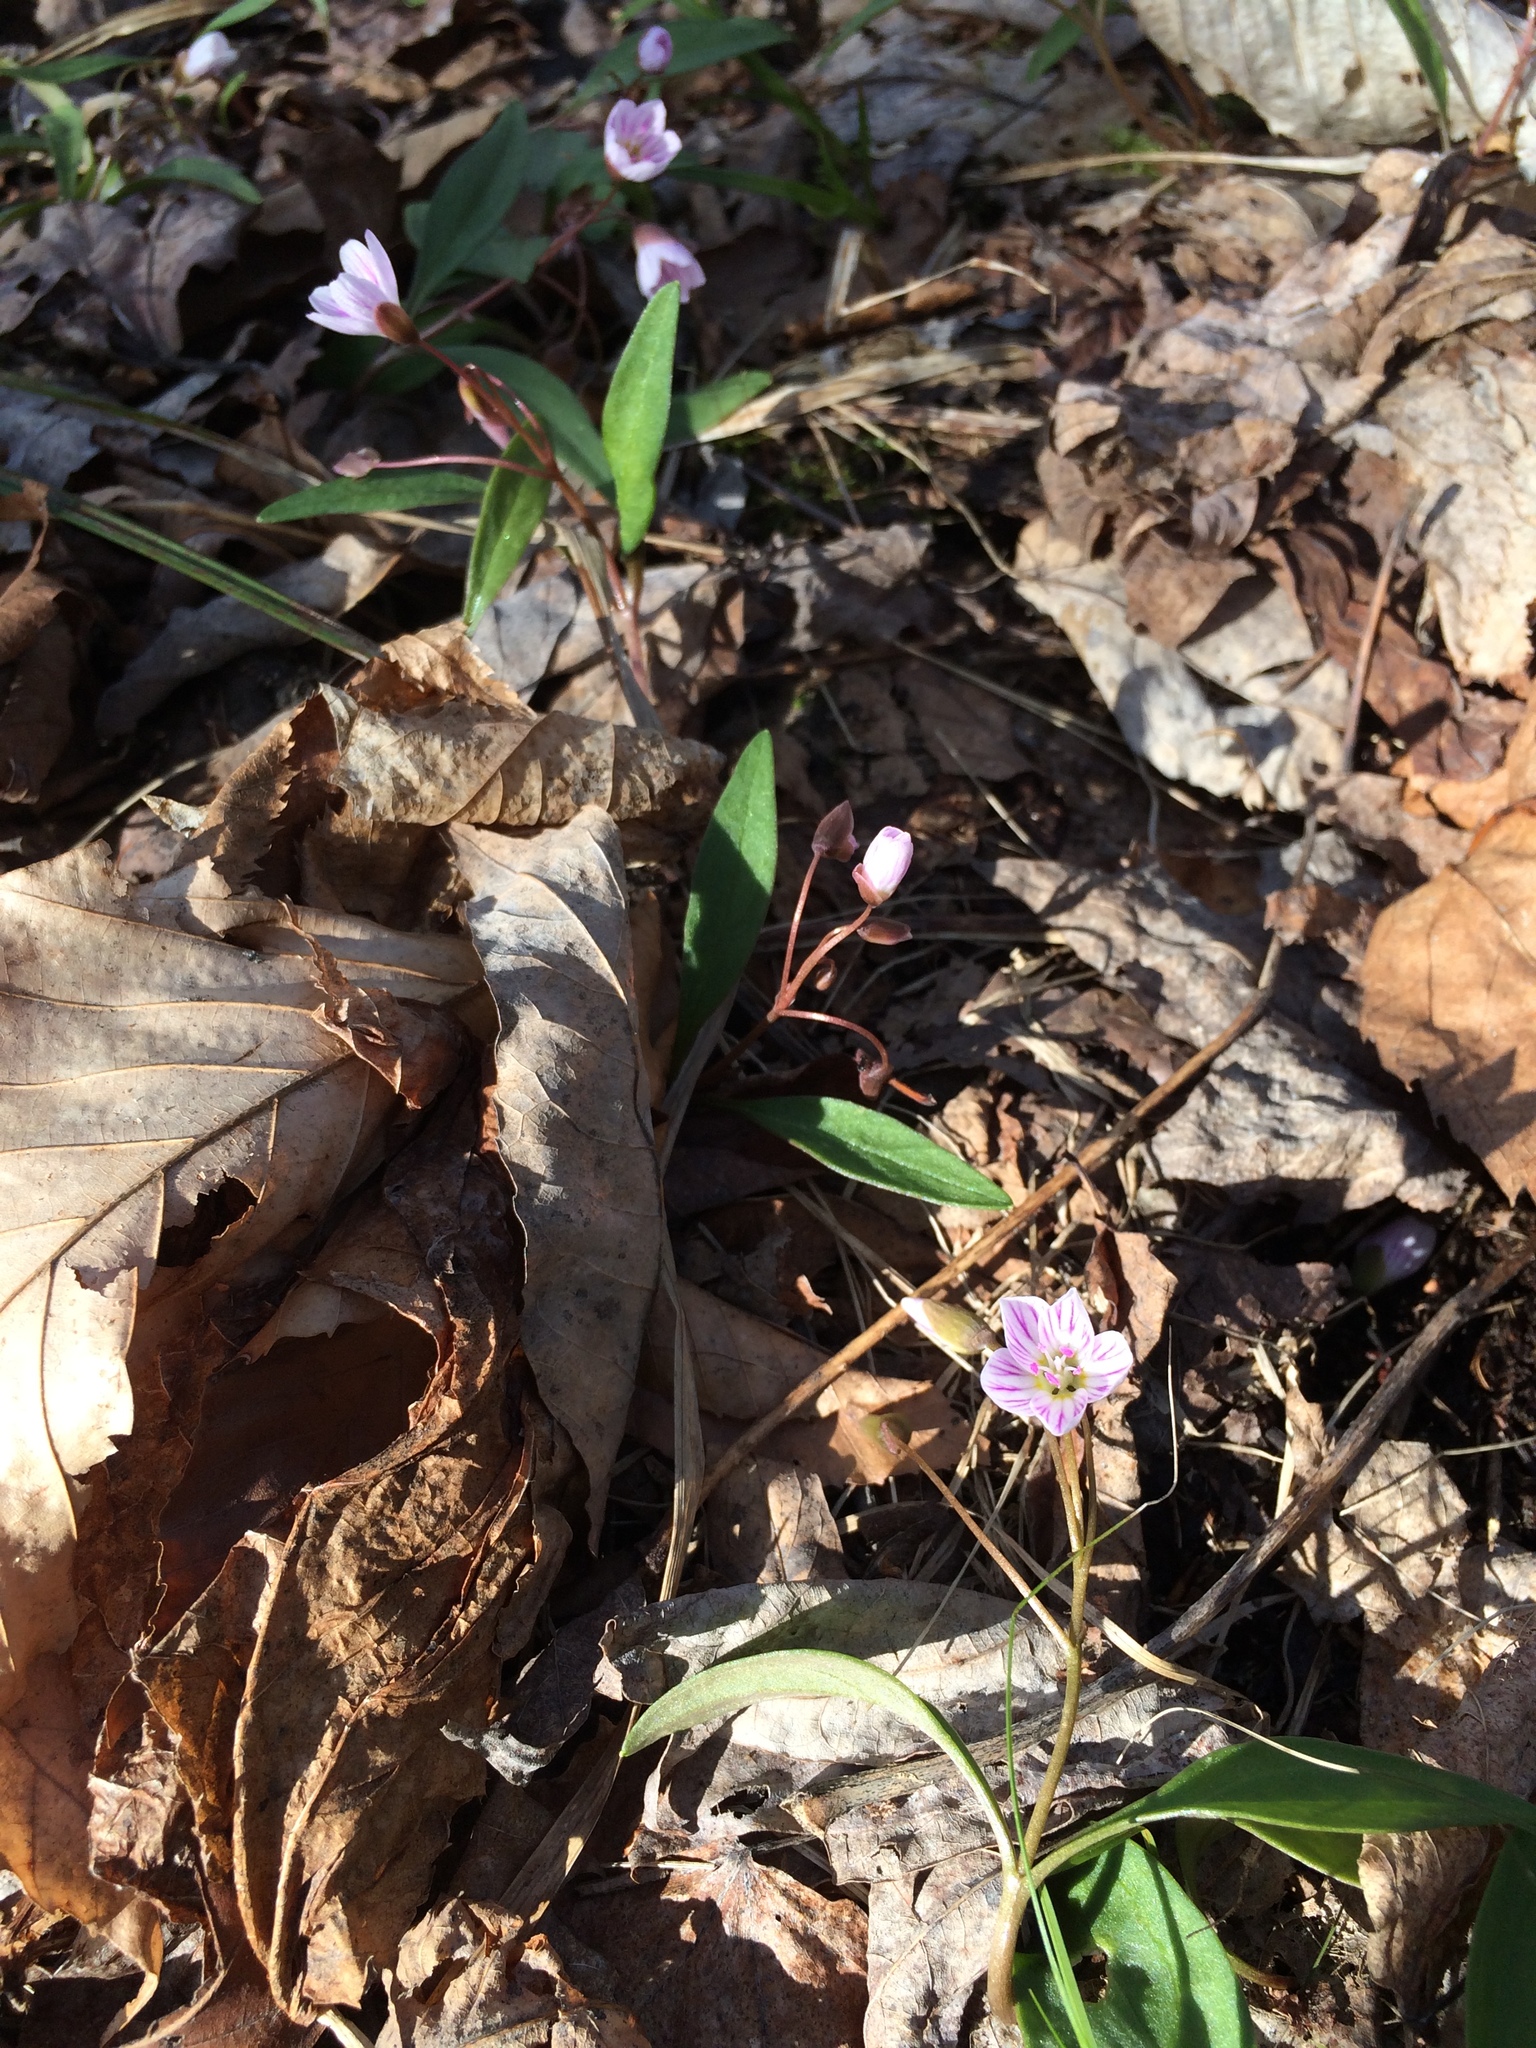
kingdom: Plantae
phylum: Tracheophyta
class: Magnoliopsida
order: Caryophyllales
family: Montiaceae
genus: Claytonia
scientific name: Claytonia caroliniana
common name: Carolina spring beauty
